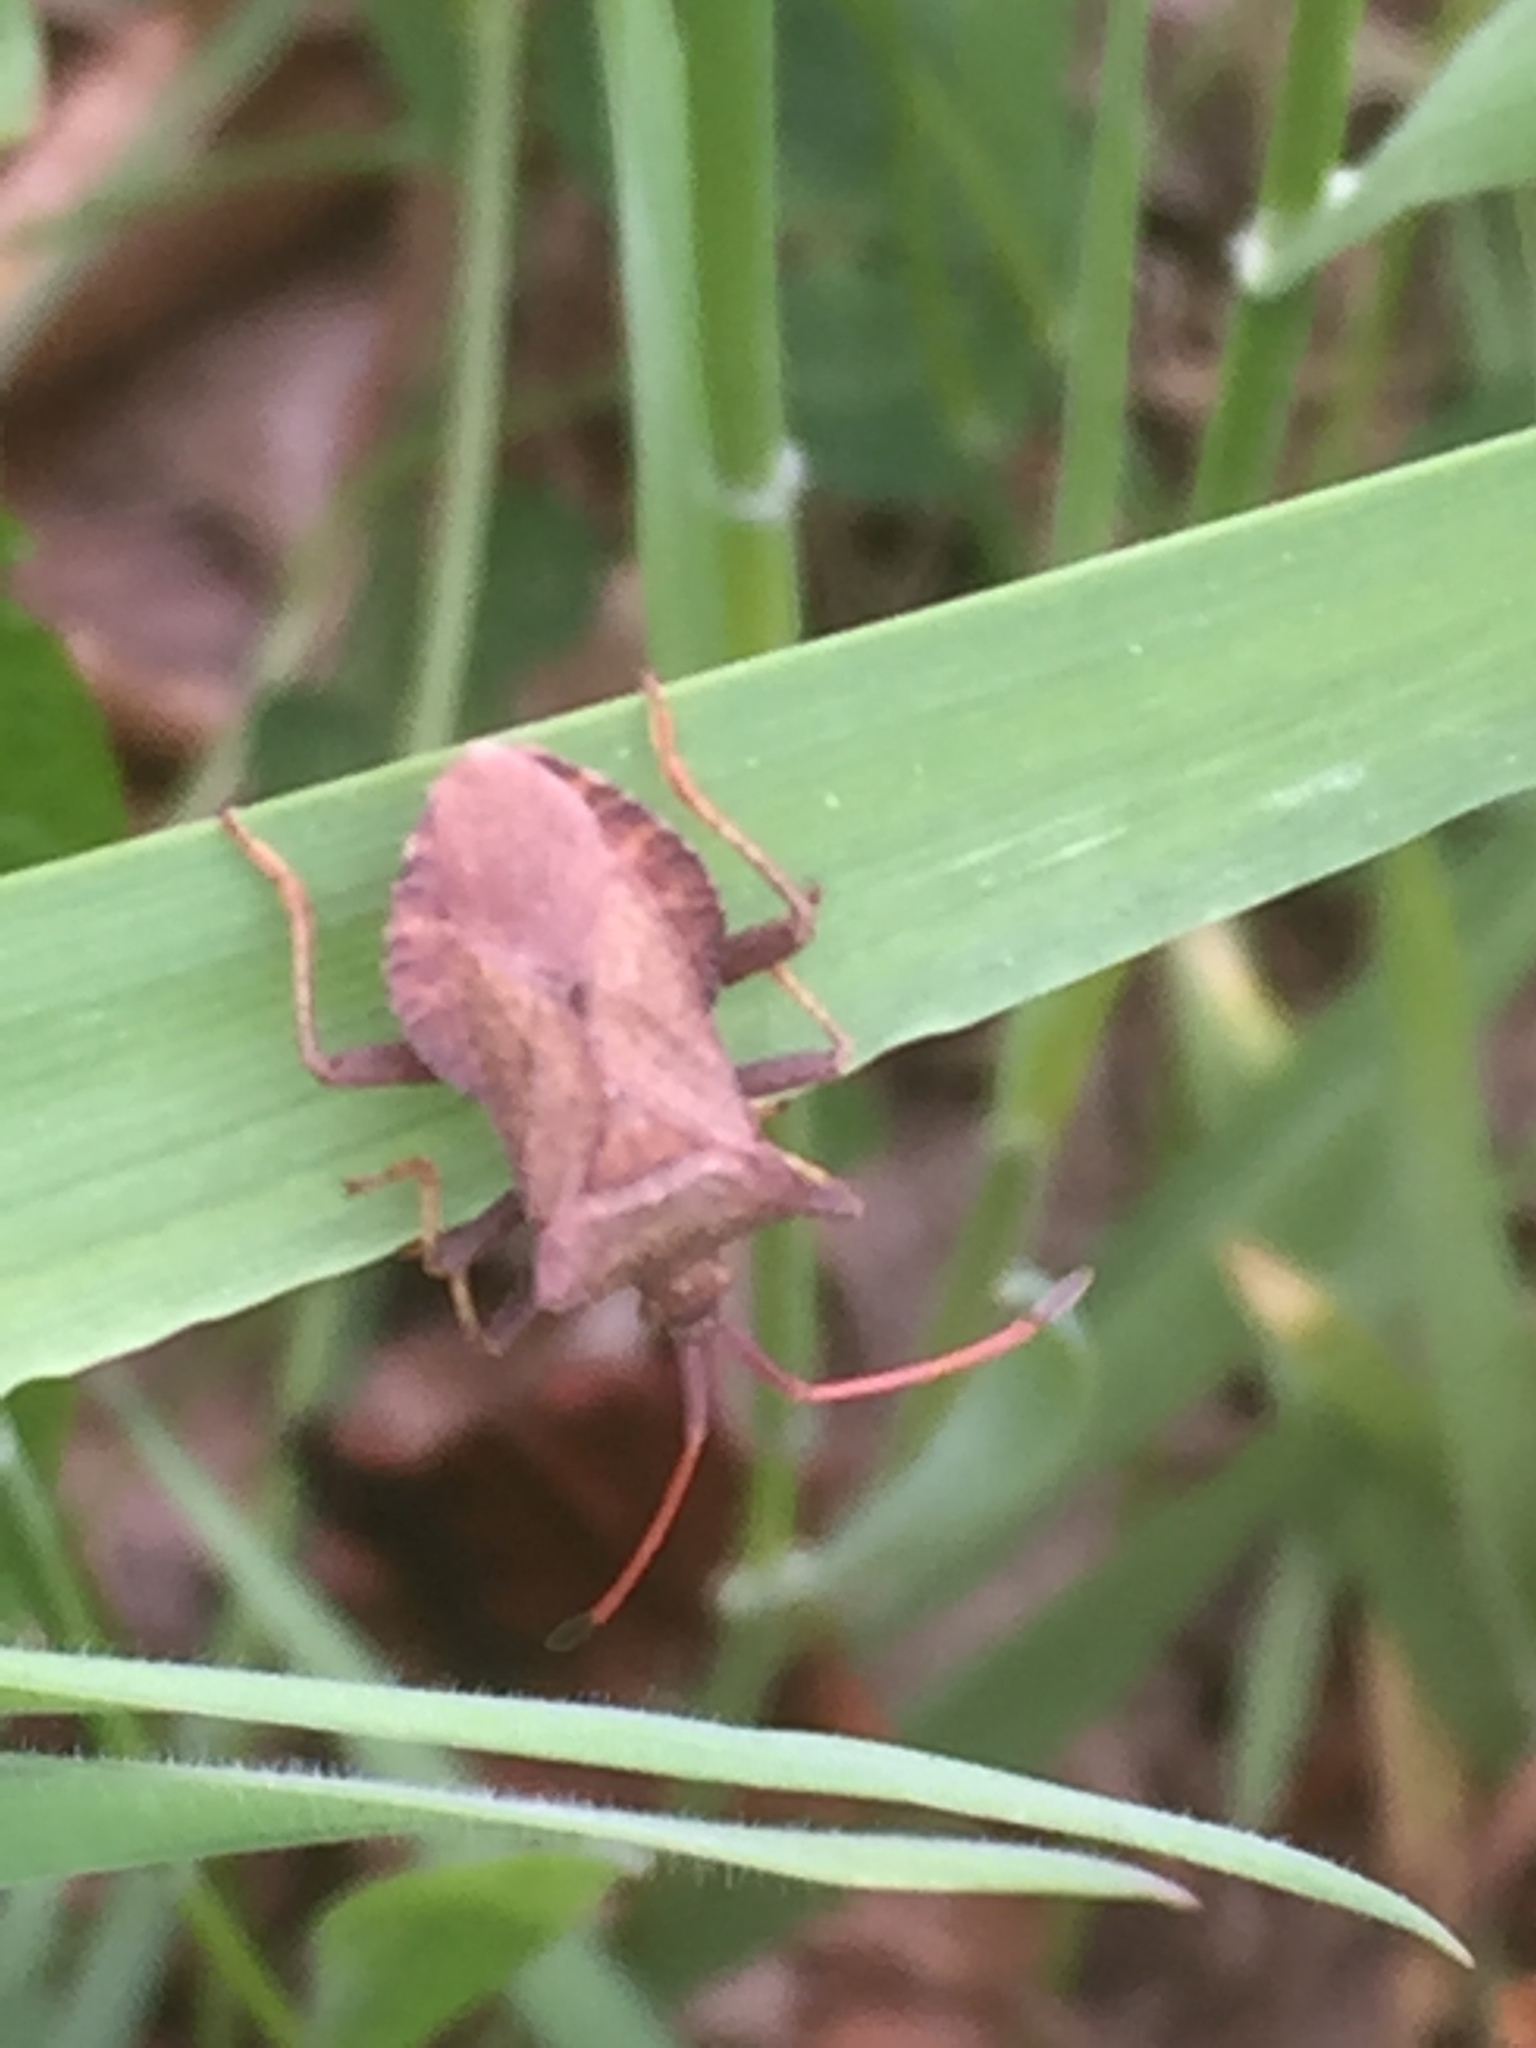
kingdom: Animalia
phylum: Arthropoda
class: Insecta
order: Hemiptera
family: Coreidae
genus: Coreus
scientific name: Coreus marginatus
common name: Dock bug
